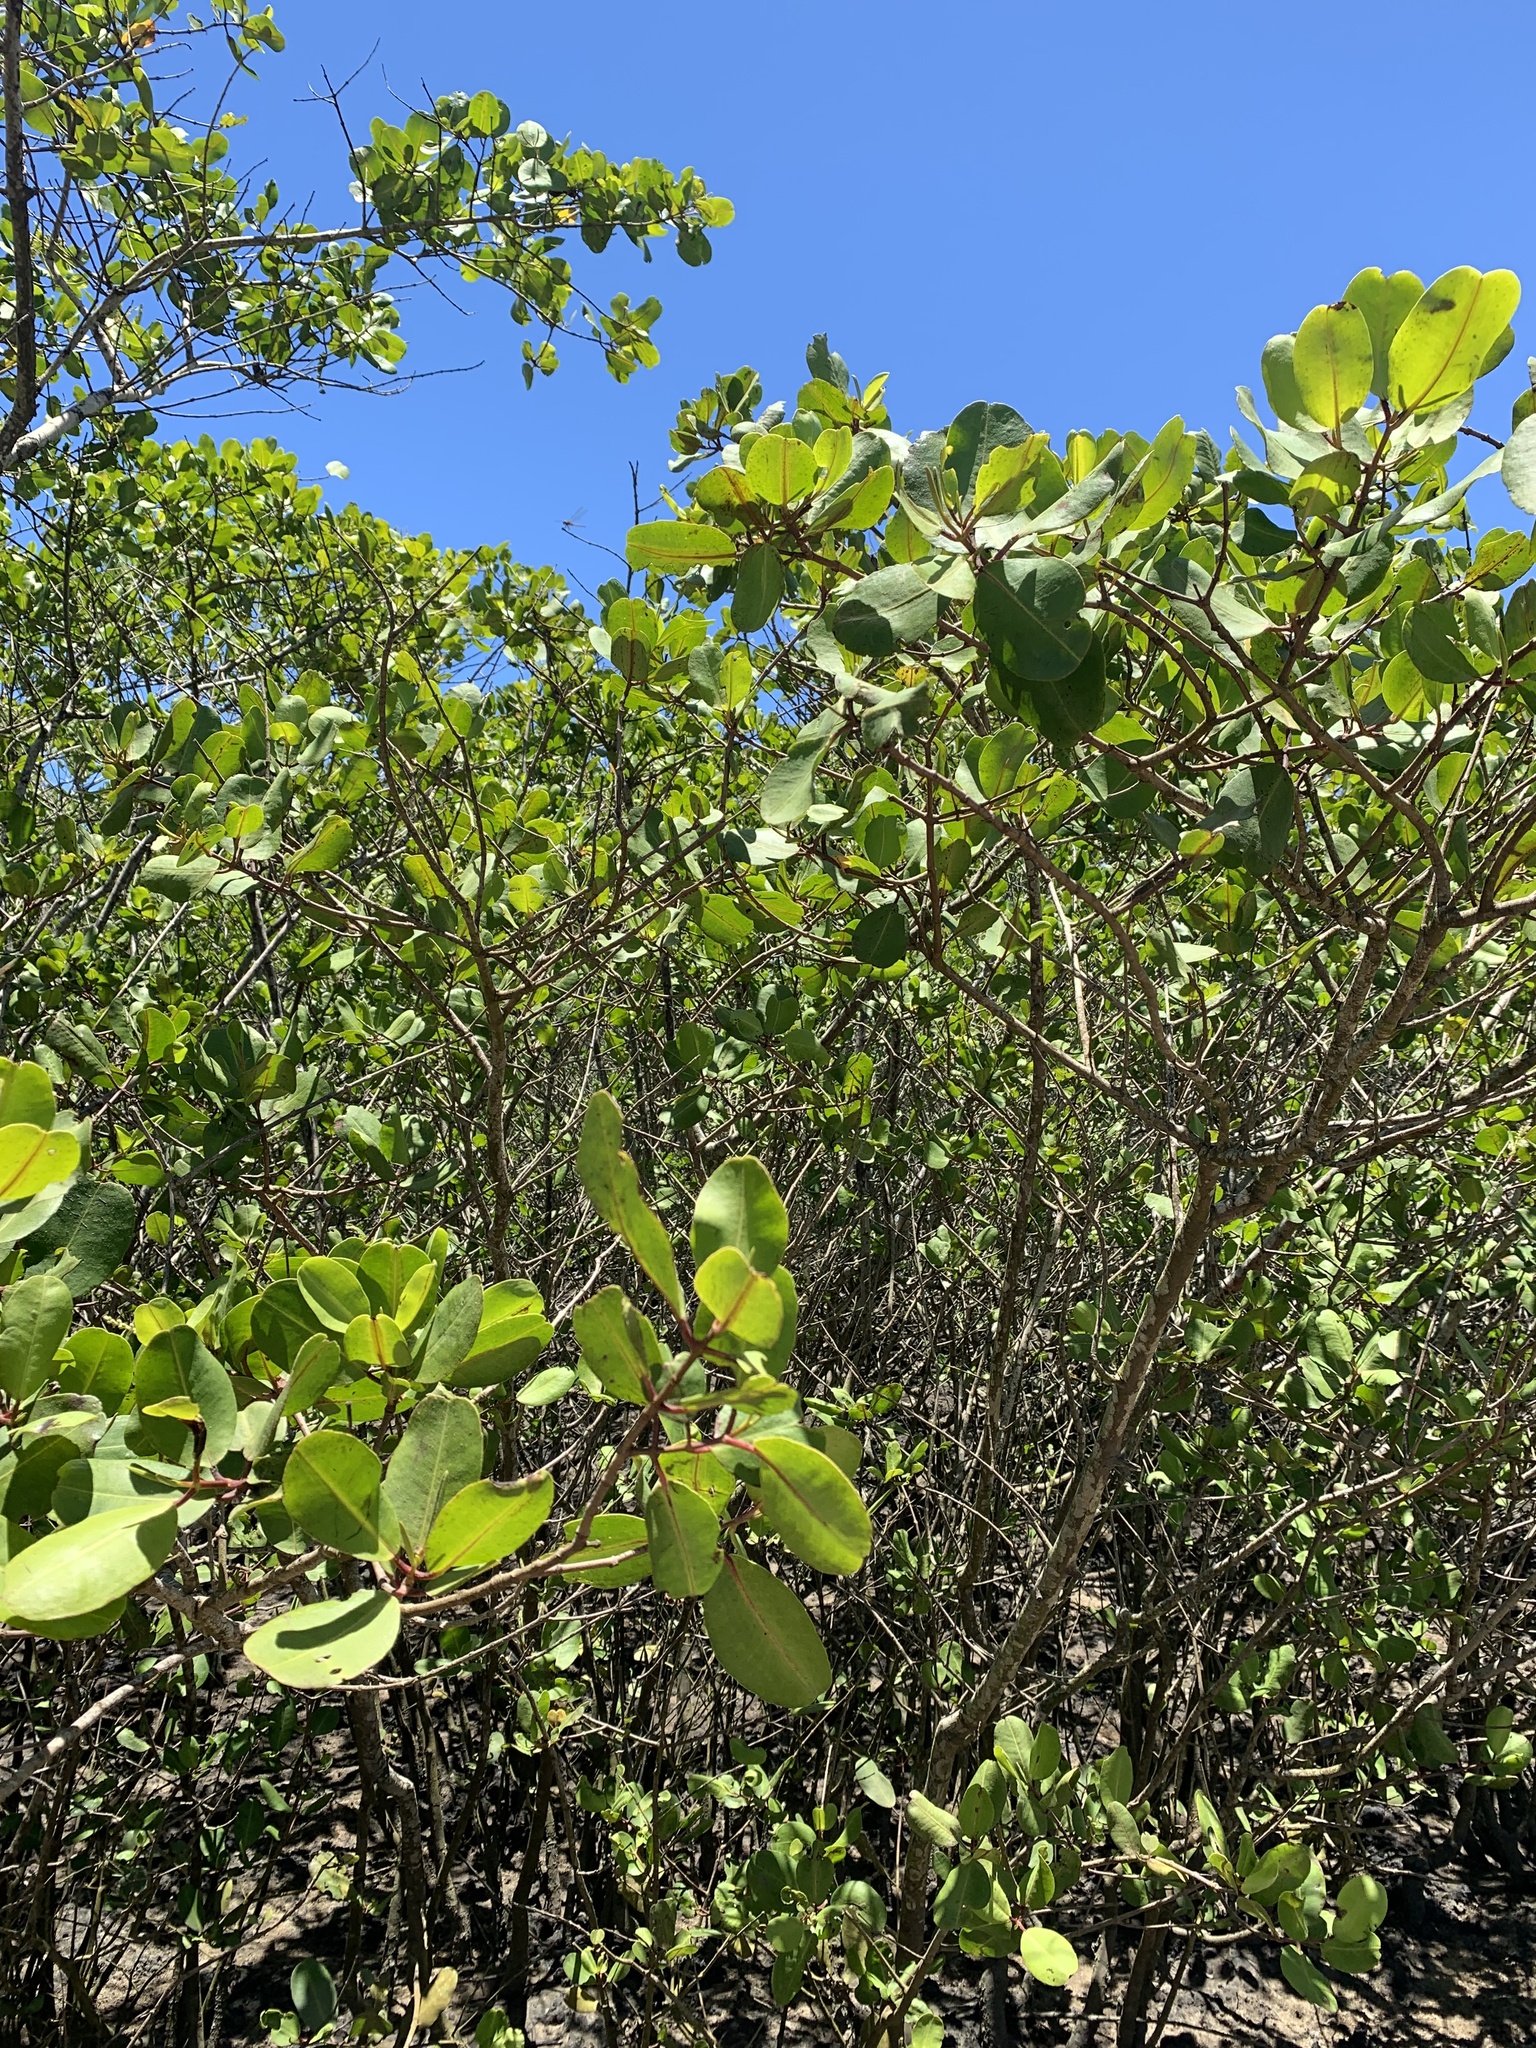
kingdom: Plantae
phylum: Tracheophyta
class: Magnoliopsida
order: Myrtales
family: Combretaceae
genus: Laguncularia
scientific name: Laguncularia racemosa
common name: White mangrove
